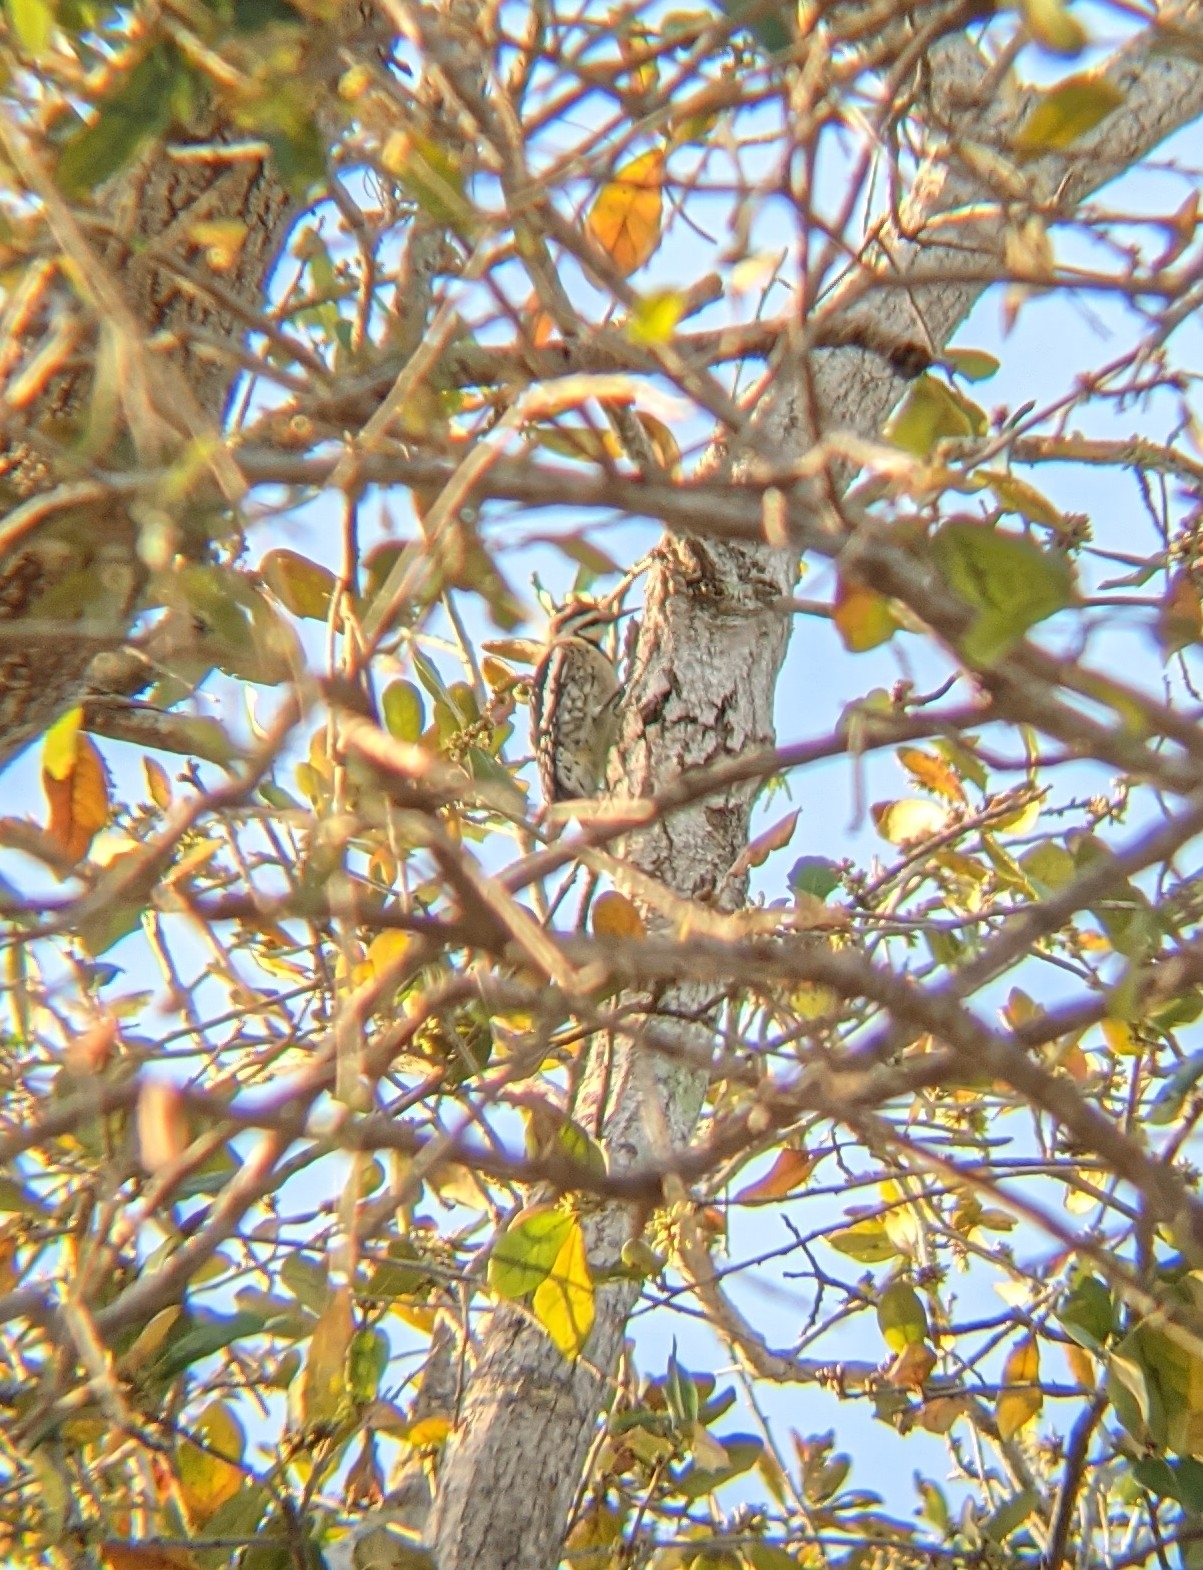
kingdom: Animalia
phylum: Chordata
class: Aves
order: Piciformes
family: Picidae
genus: Sphyrapicus
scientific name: Sphyrapicus varius
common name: Yellow-bellied sapsucker
